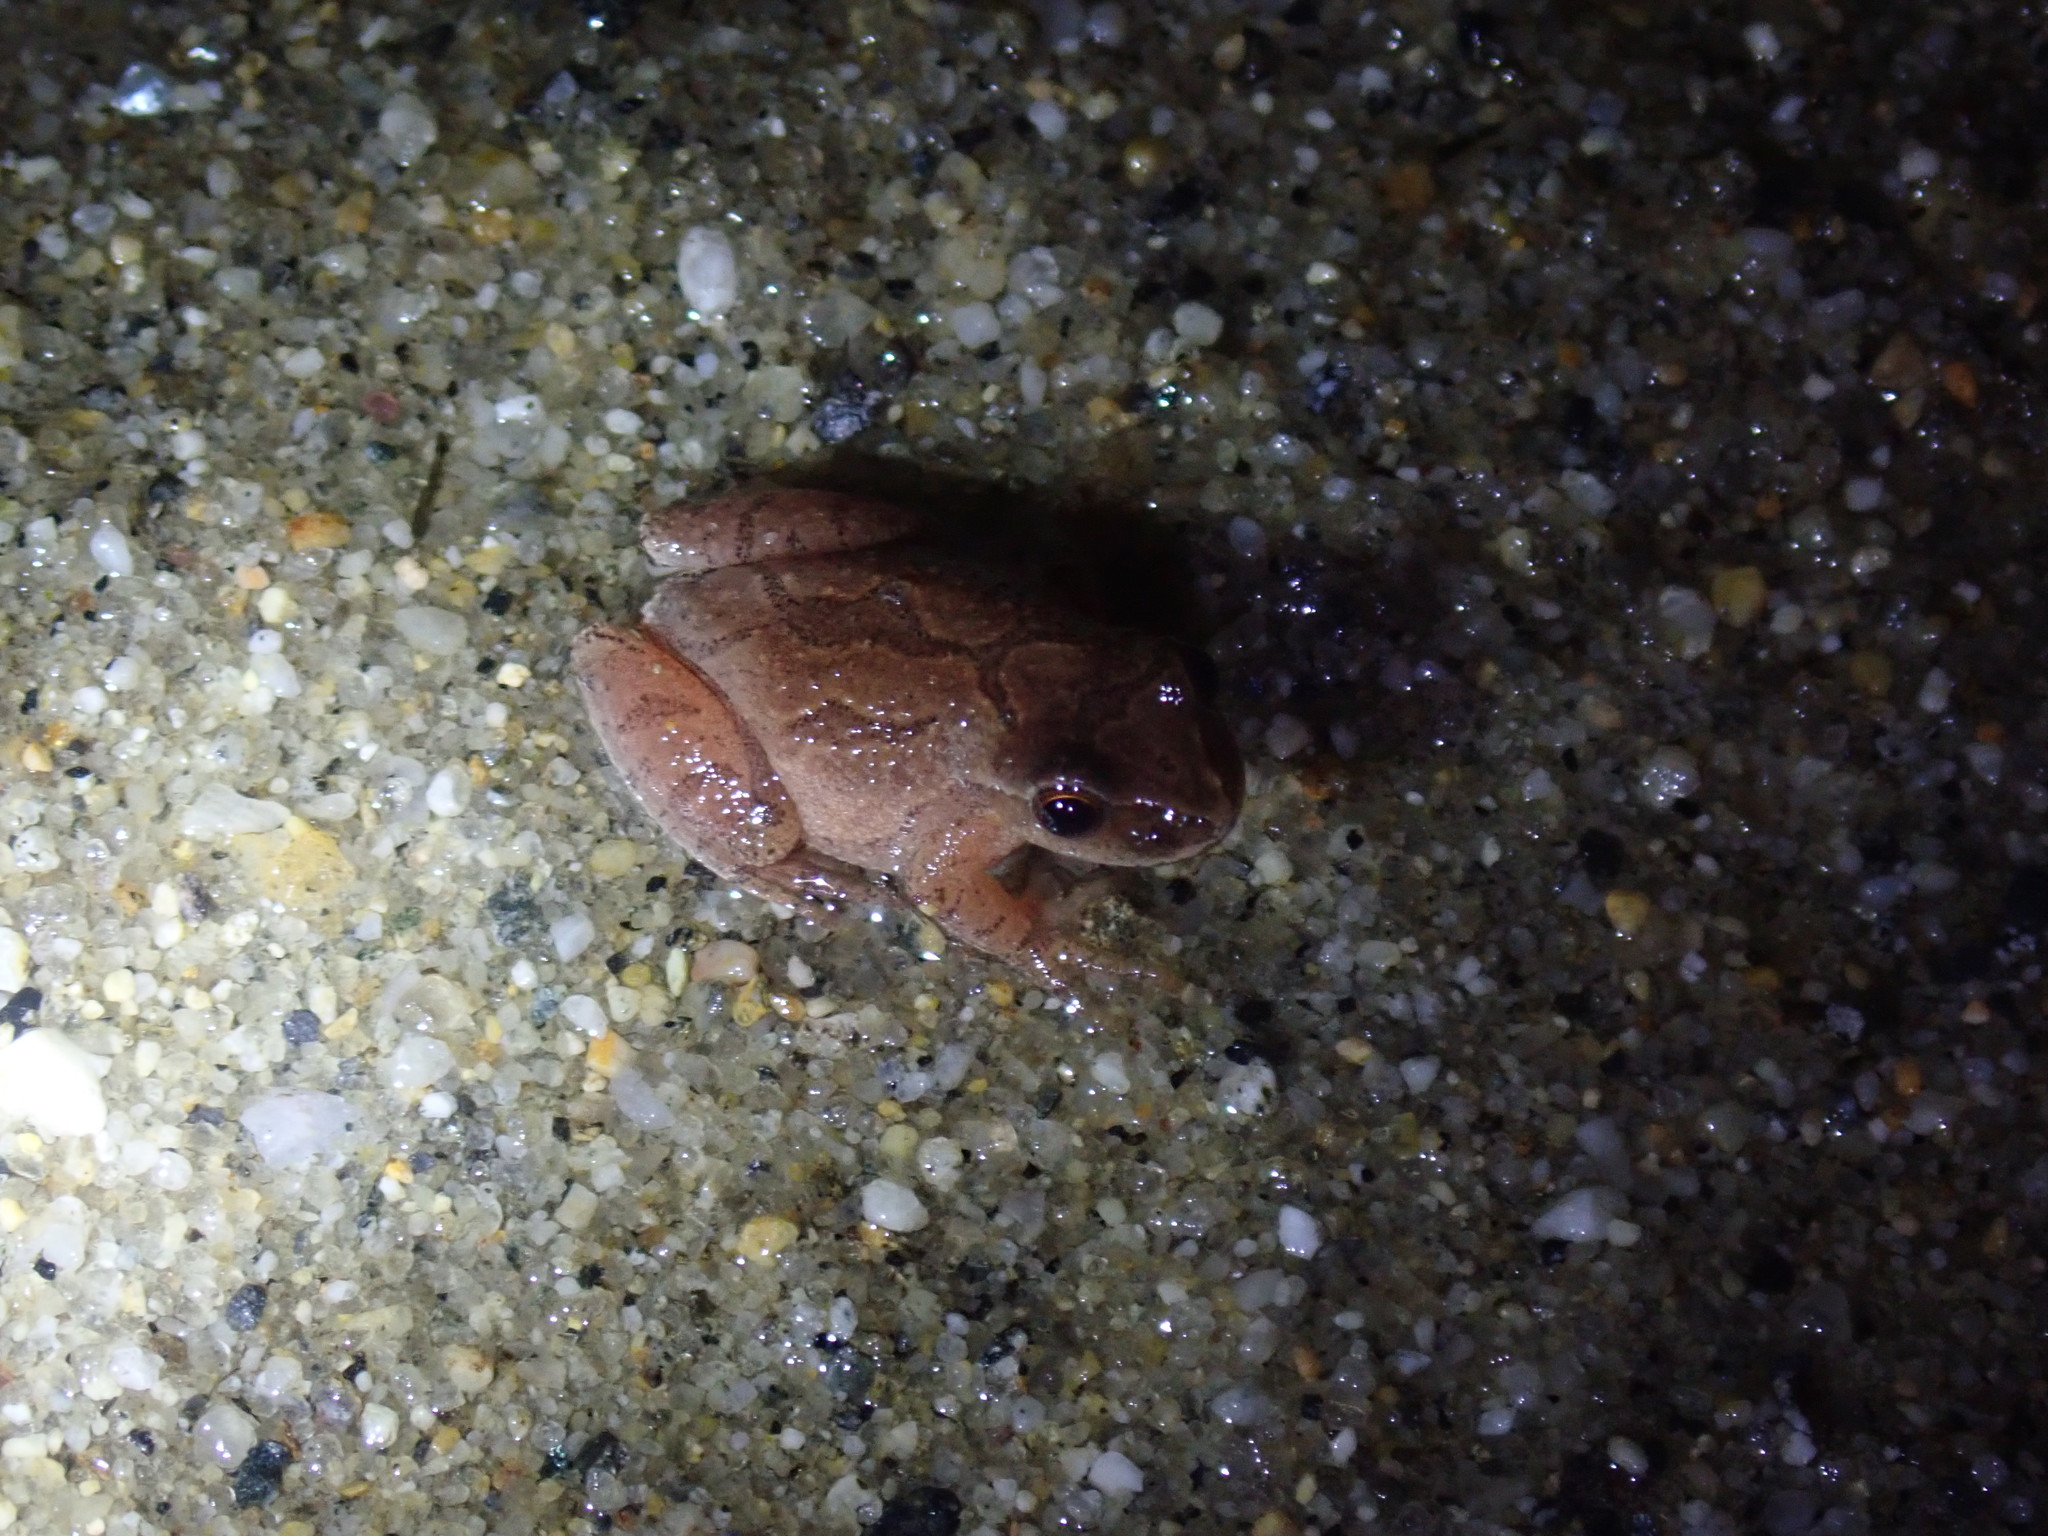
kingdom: Animalia
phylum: Chordata
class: Amphibia
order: Anura
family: Hylidae
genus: Pseudacris
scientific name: Pseudacris crucifer
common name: Spring peeper
